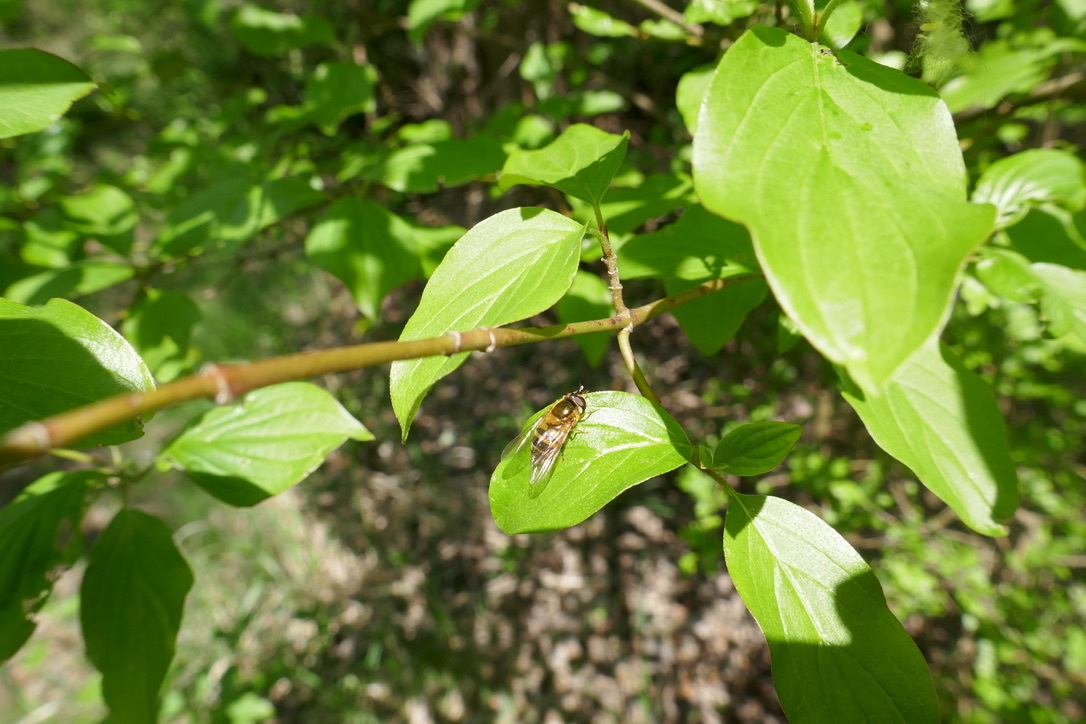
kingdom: Animalia
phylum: Arthropoda
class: Insecta
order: Diptera
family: Syrphidae
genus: Epistrophe
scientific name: Epistrophe eligans
